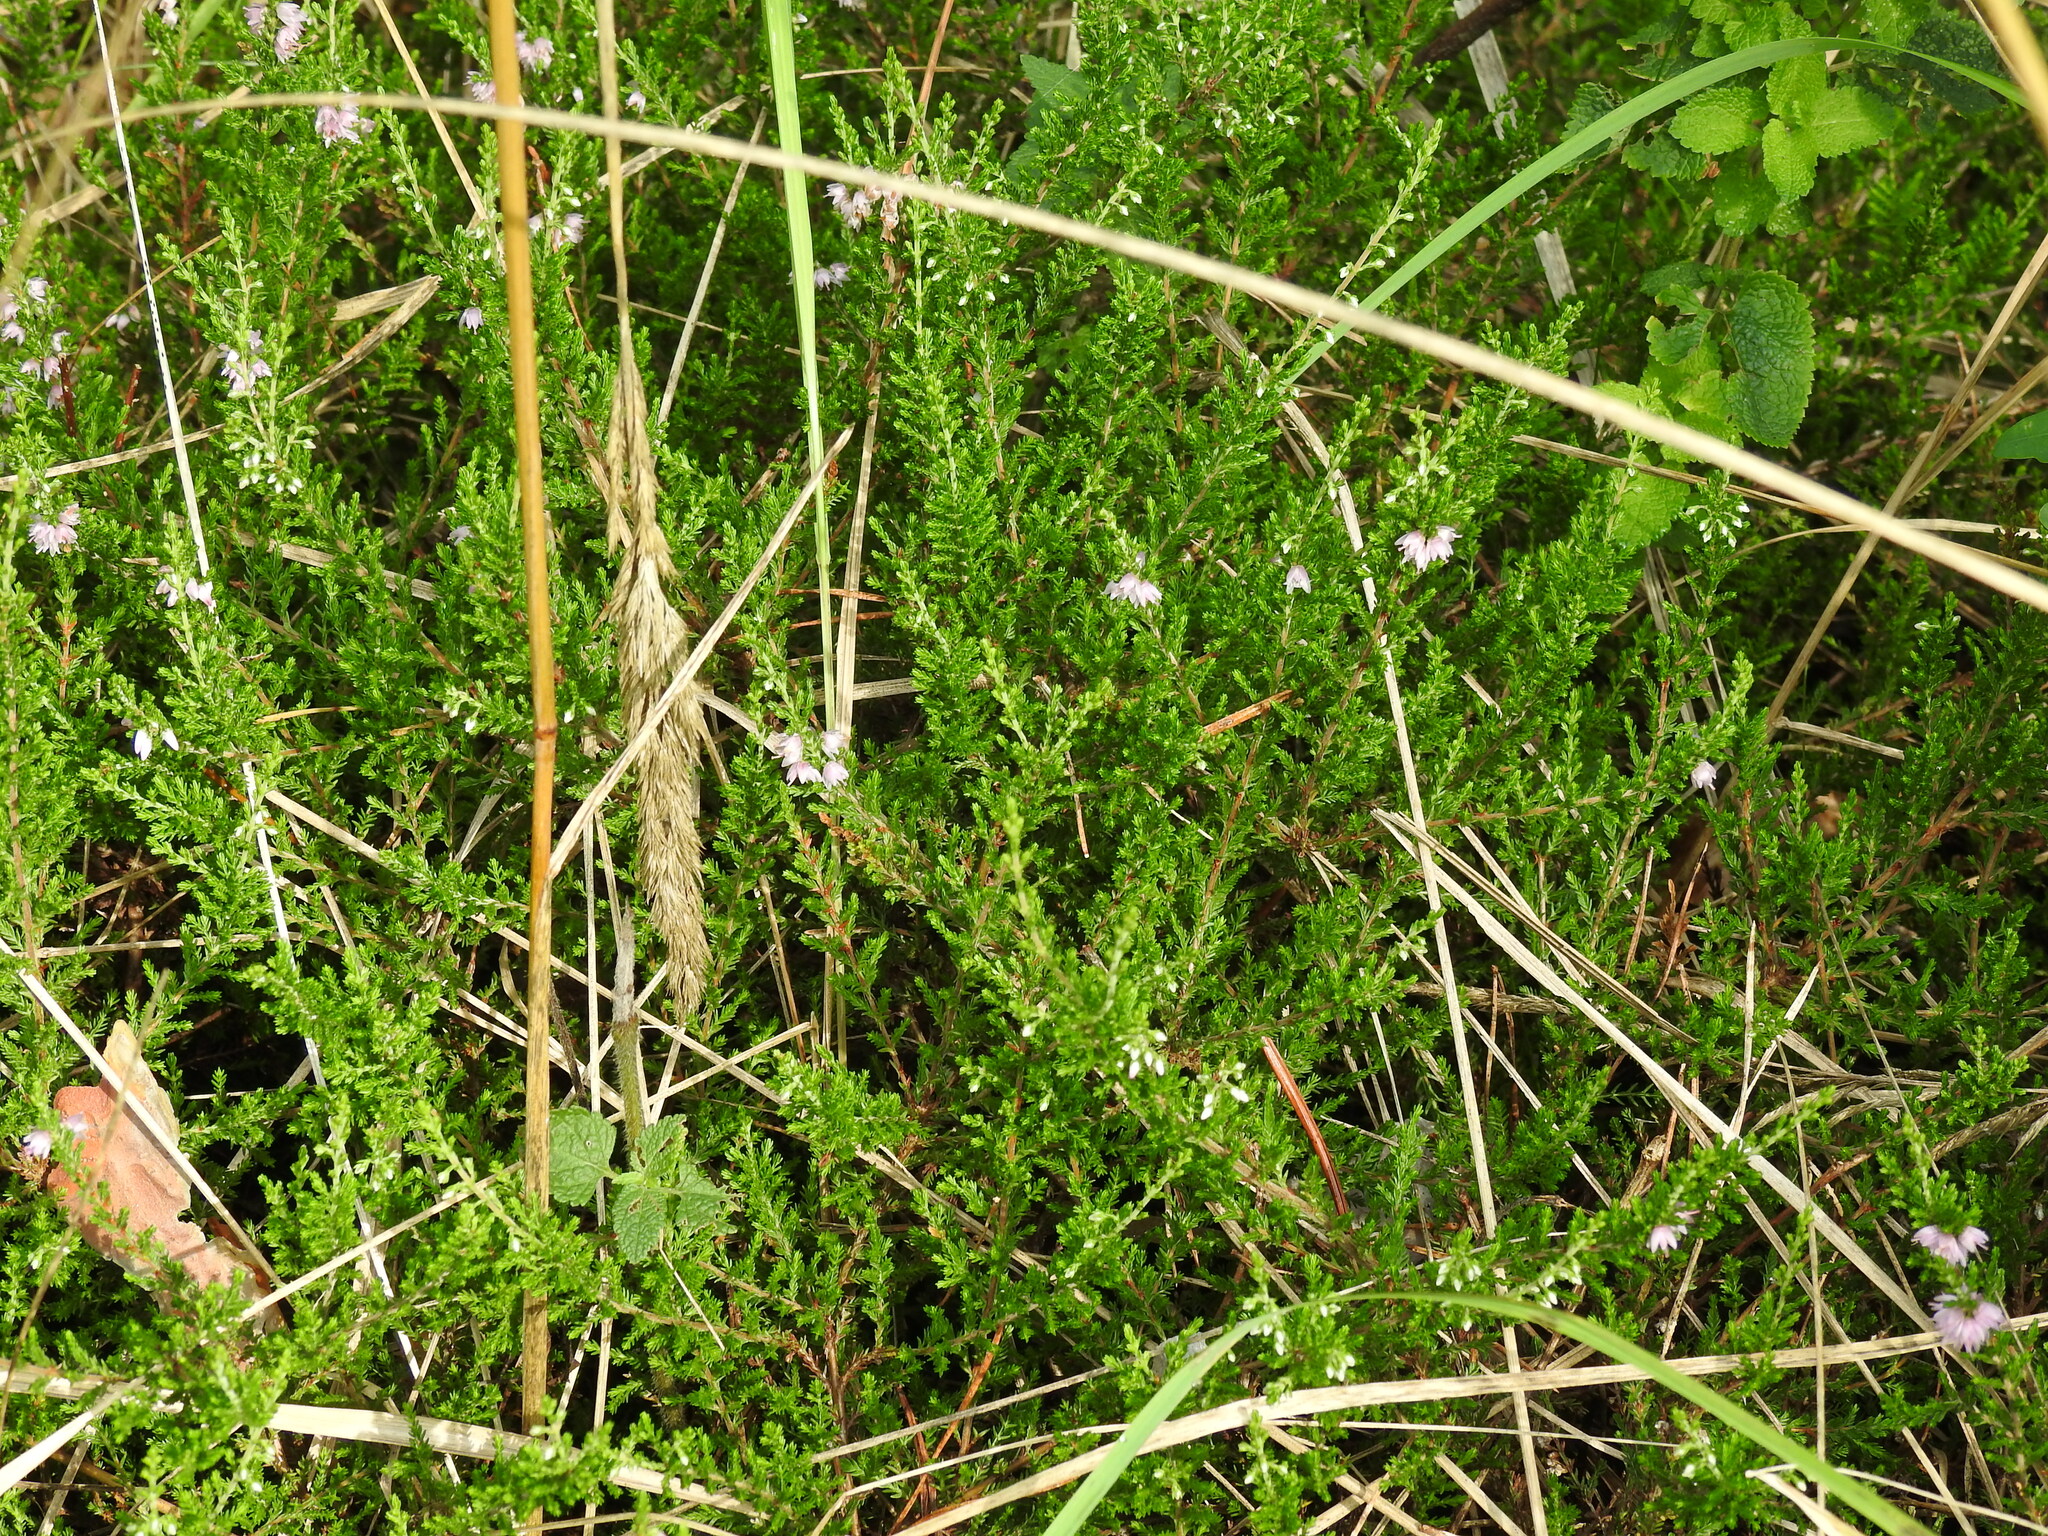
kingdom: Plantae
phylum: Tracheophyta
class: Magnoliopsida
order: Ericales
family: Ericaceae
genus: Calluna
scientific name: Calluna vulgaris
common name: Heather
